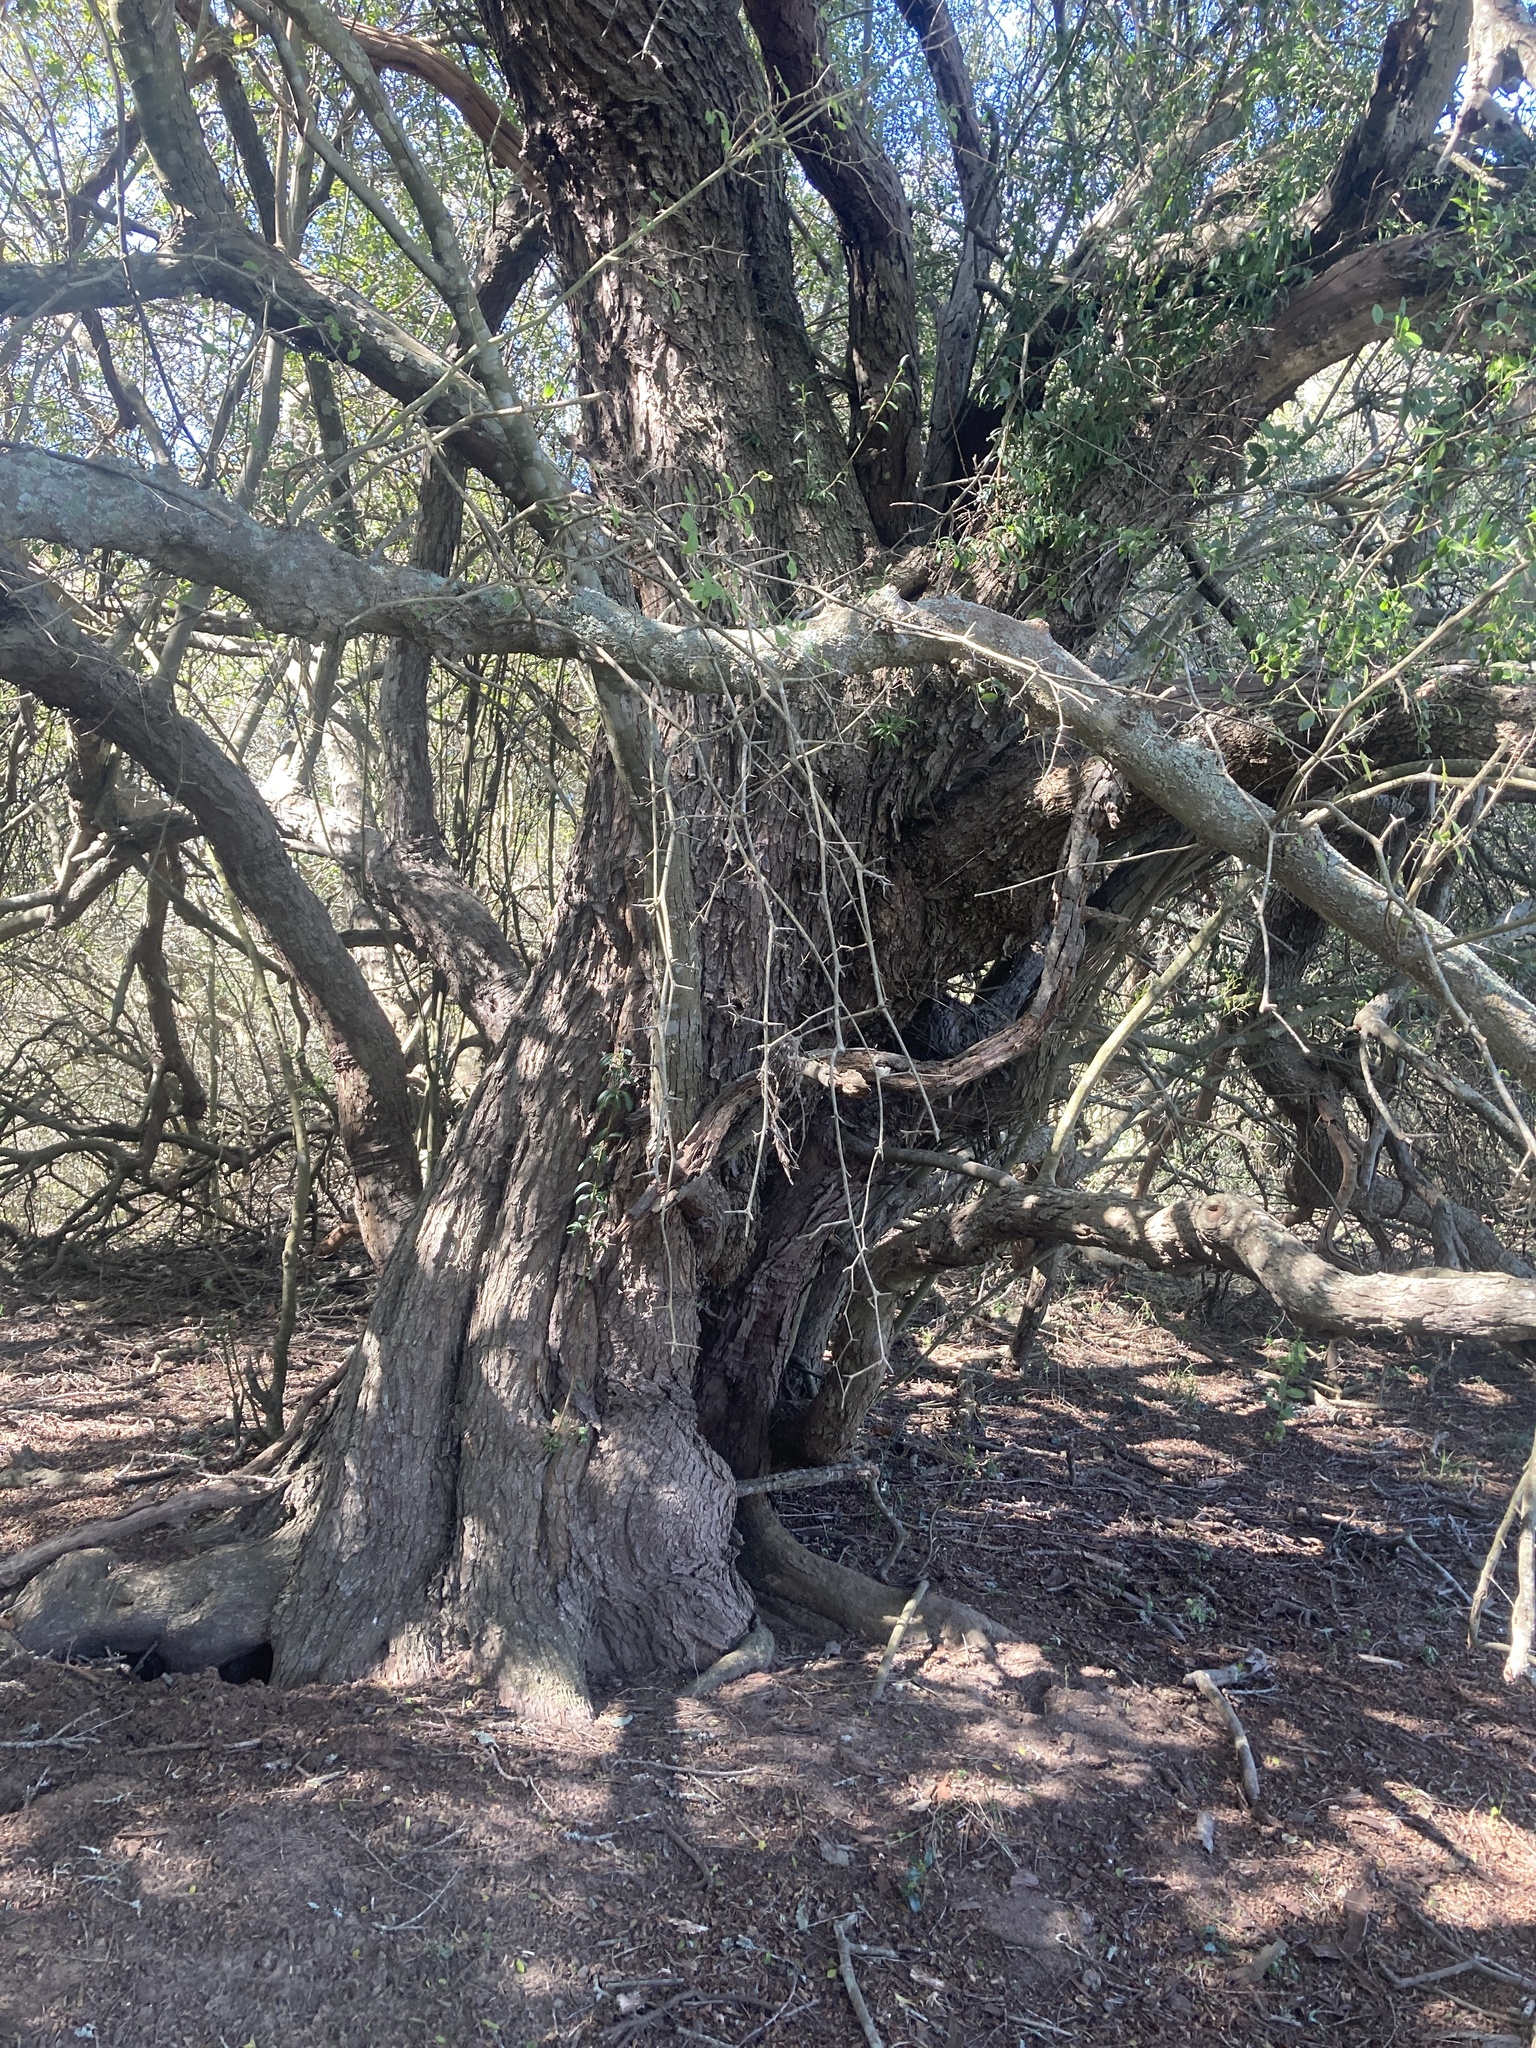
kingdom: Plantae
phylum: Tracheophyta
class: Magnoliopsida
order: Sapindales
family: Anacardiaceae
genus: Schinus
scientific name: Schinus longifolia
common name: Longleaf peppertree
